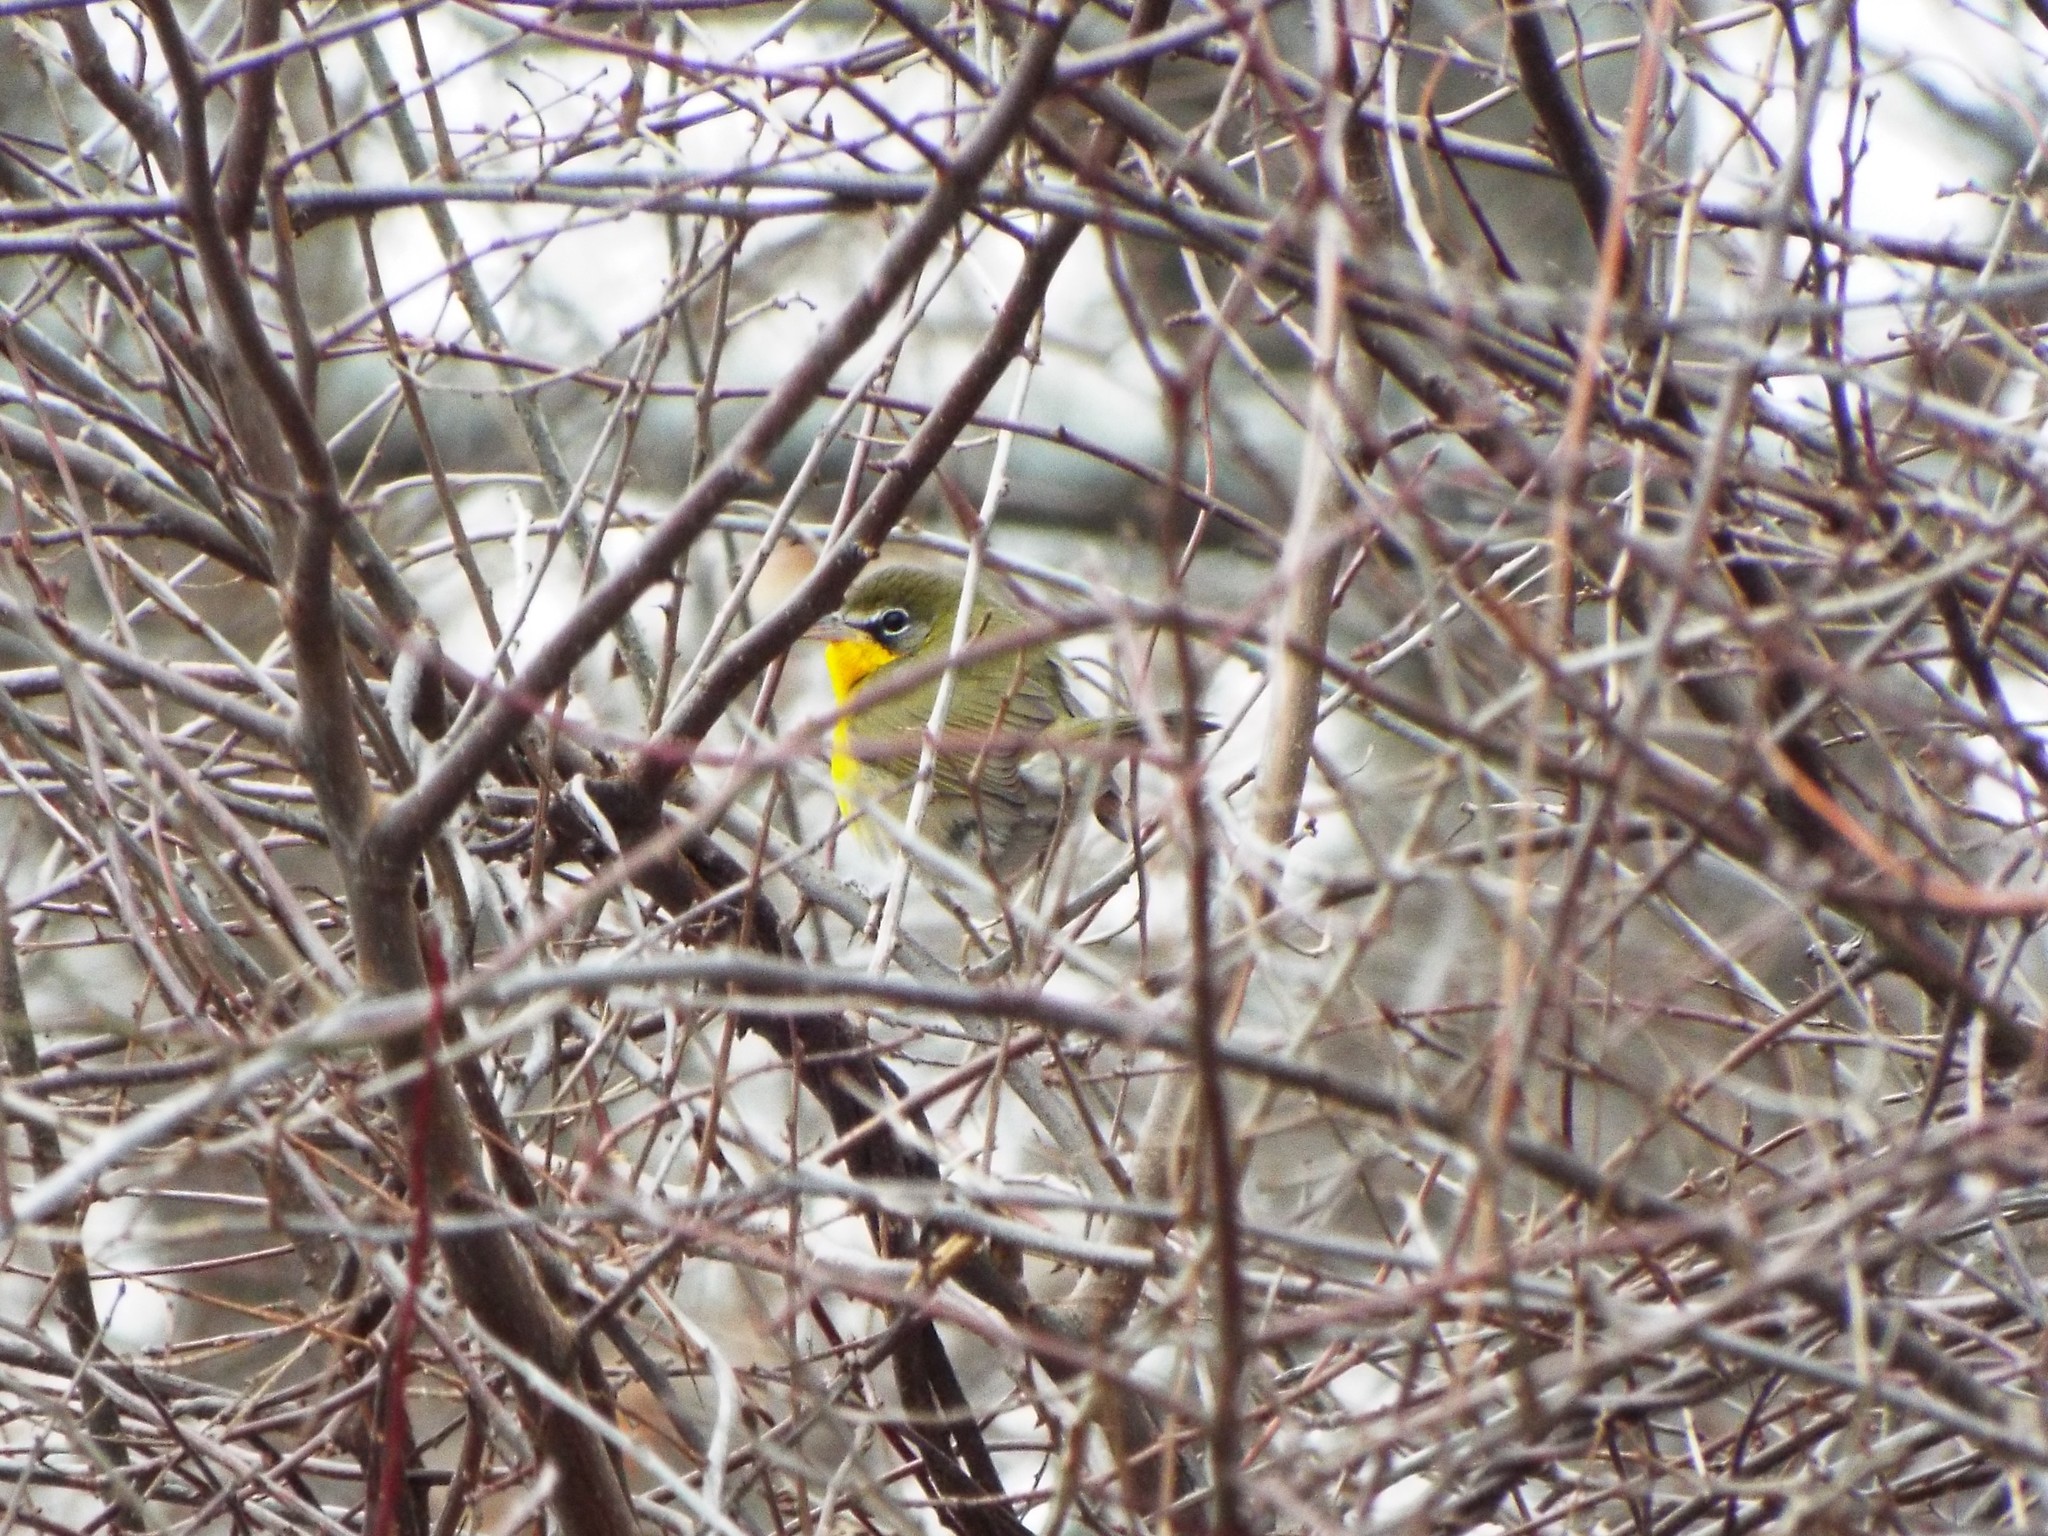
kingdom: Animalia
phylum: Chordata
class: Aves
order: Passeriformes
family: Parulidae
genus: Icteria
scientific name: Icteria virens
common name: Yellow-breasted chat
